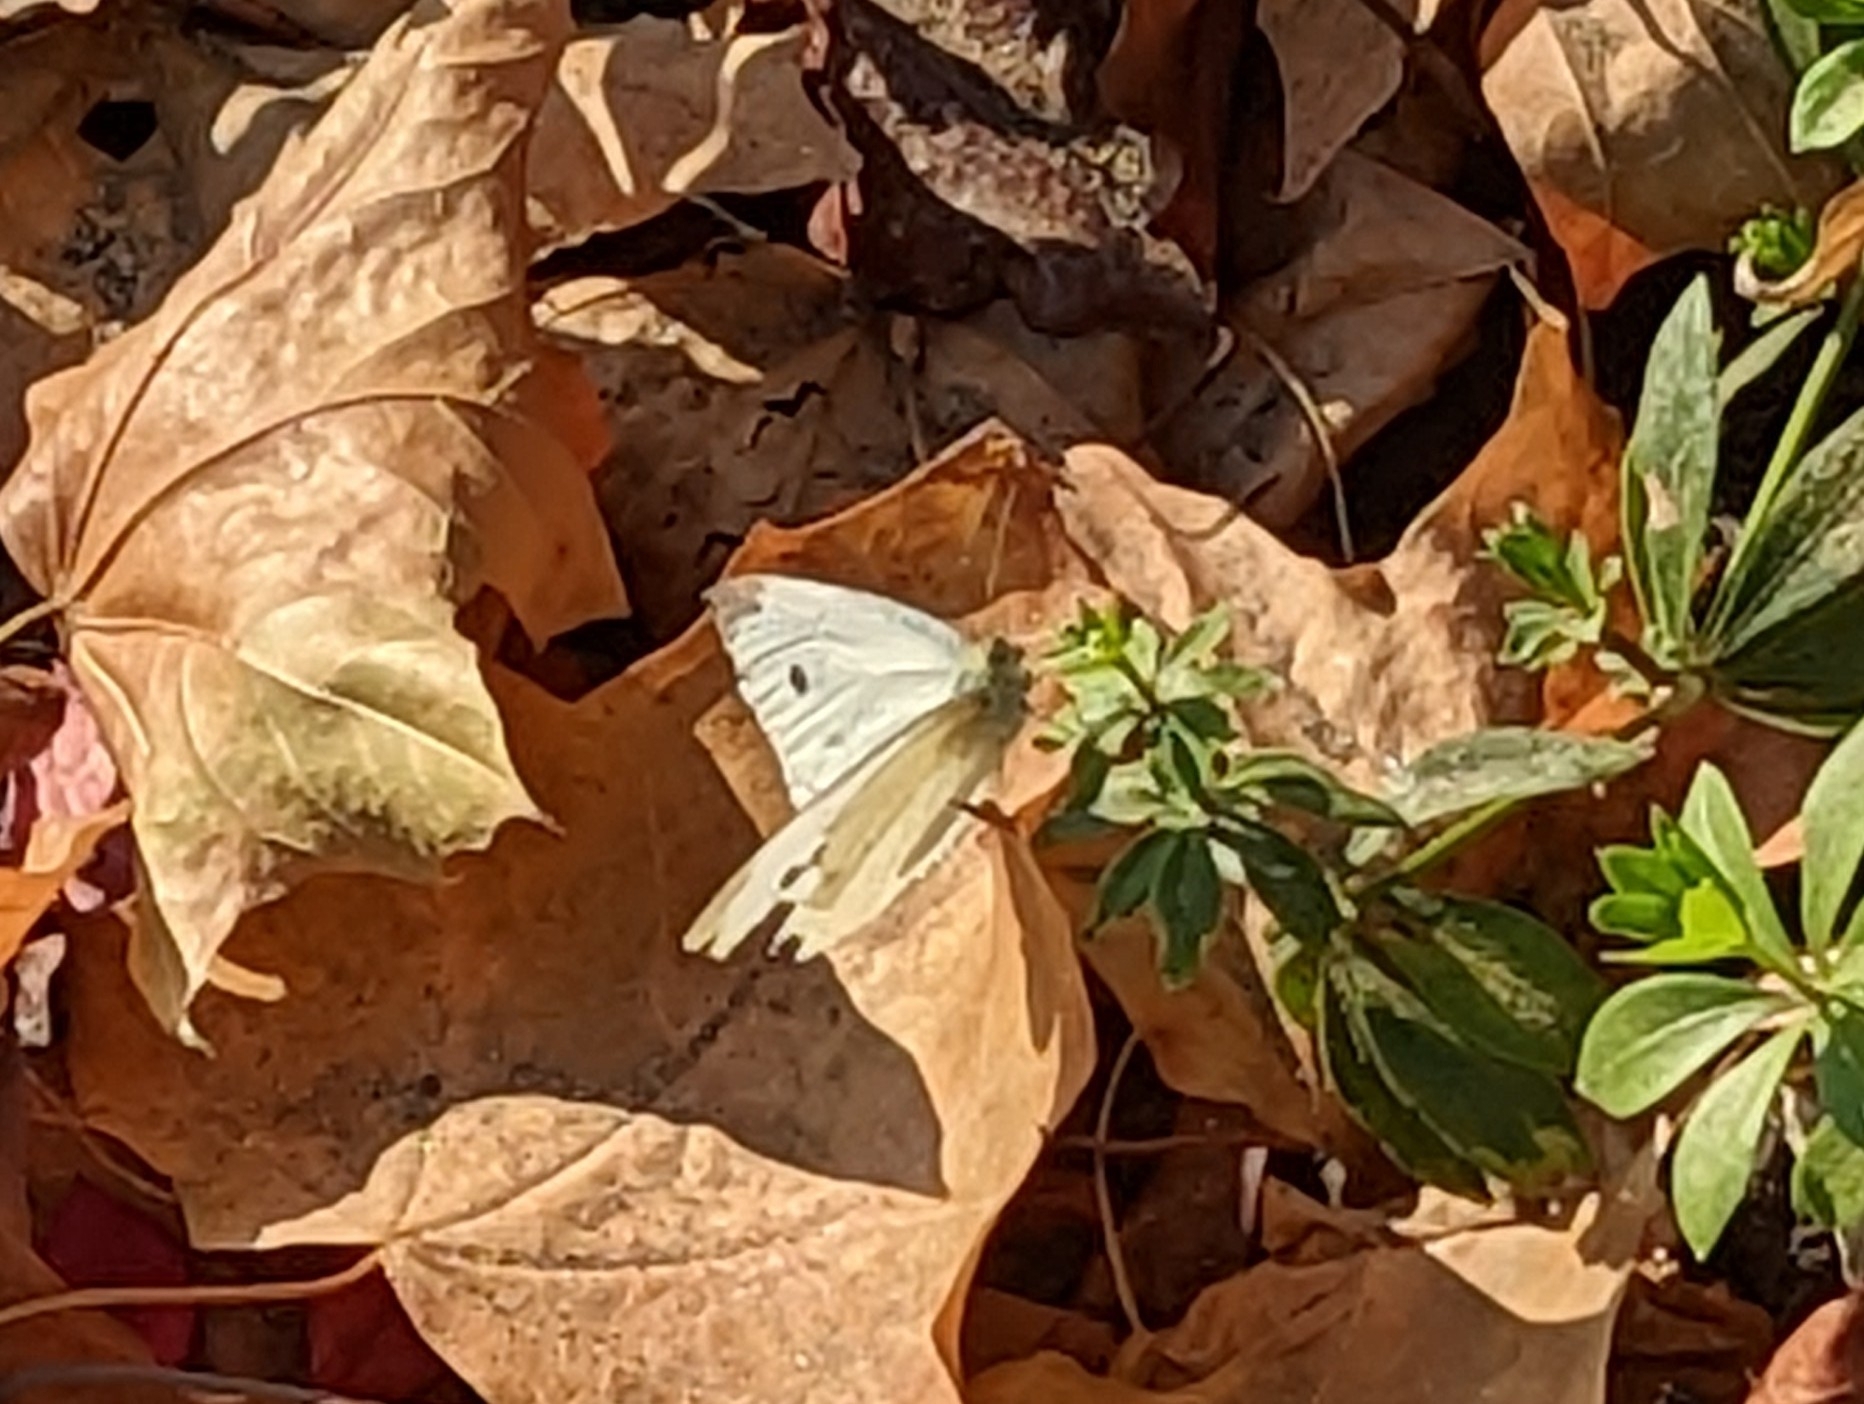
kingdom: Animalia
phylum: Arthropoda
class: Insecta
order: Lepidoptera
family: Pieridae
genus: Pieris
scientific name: Pieris rapae
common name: Small white
